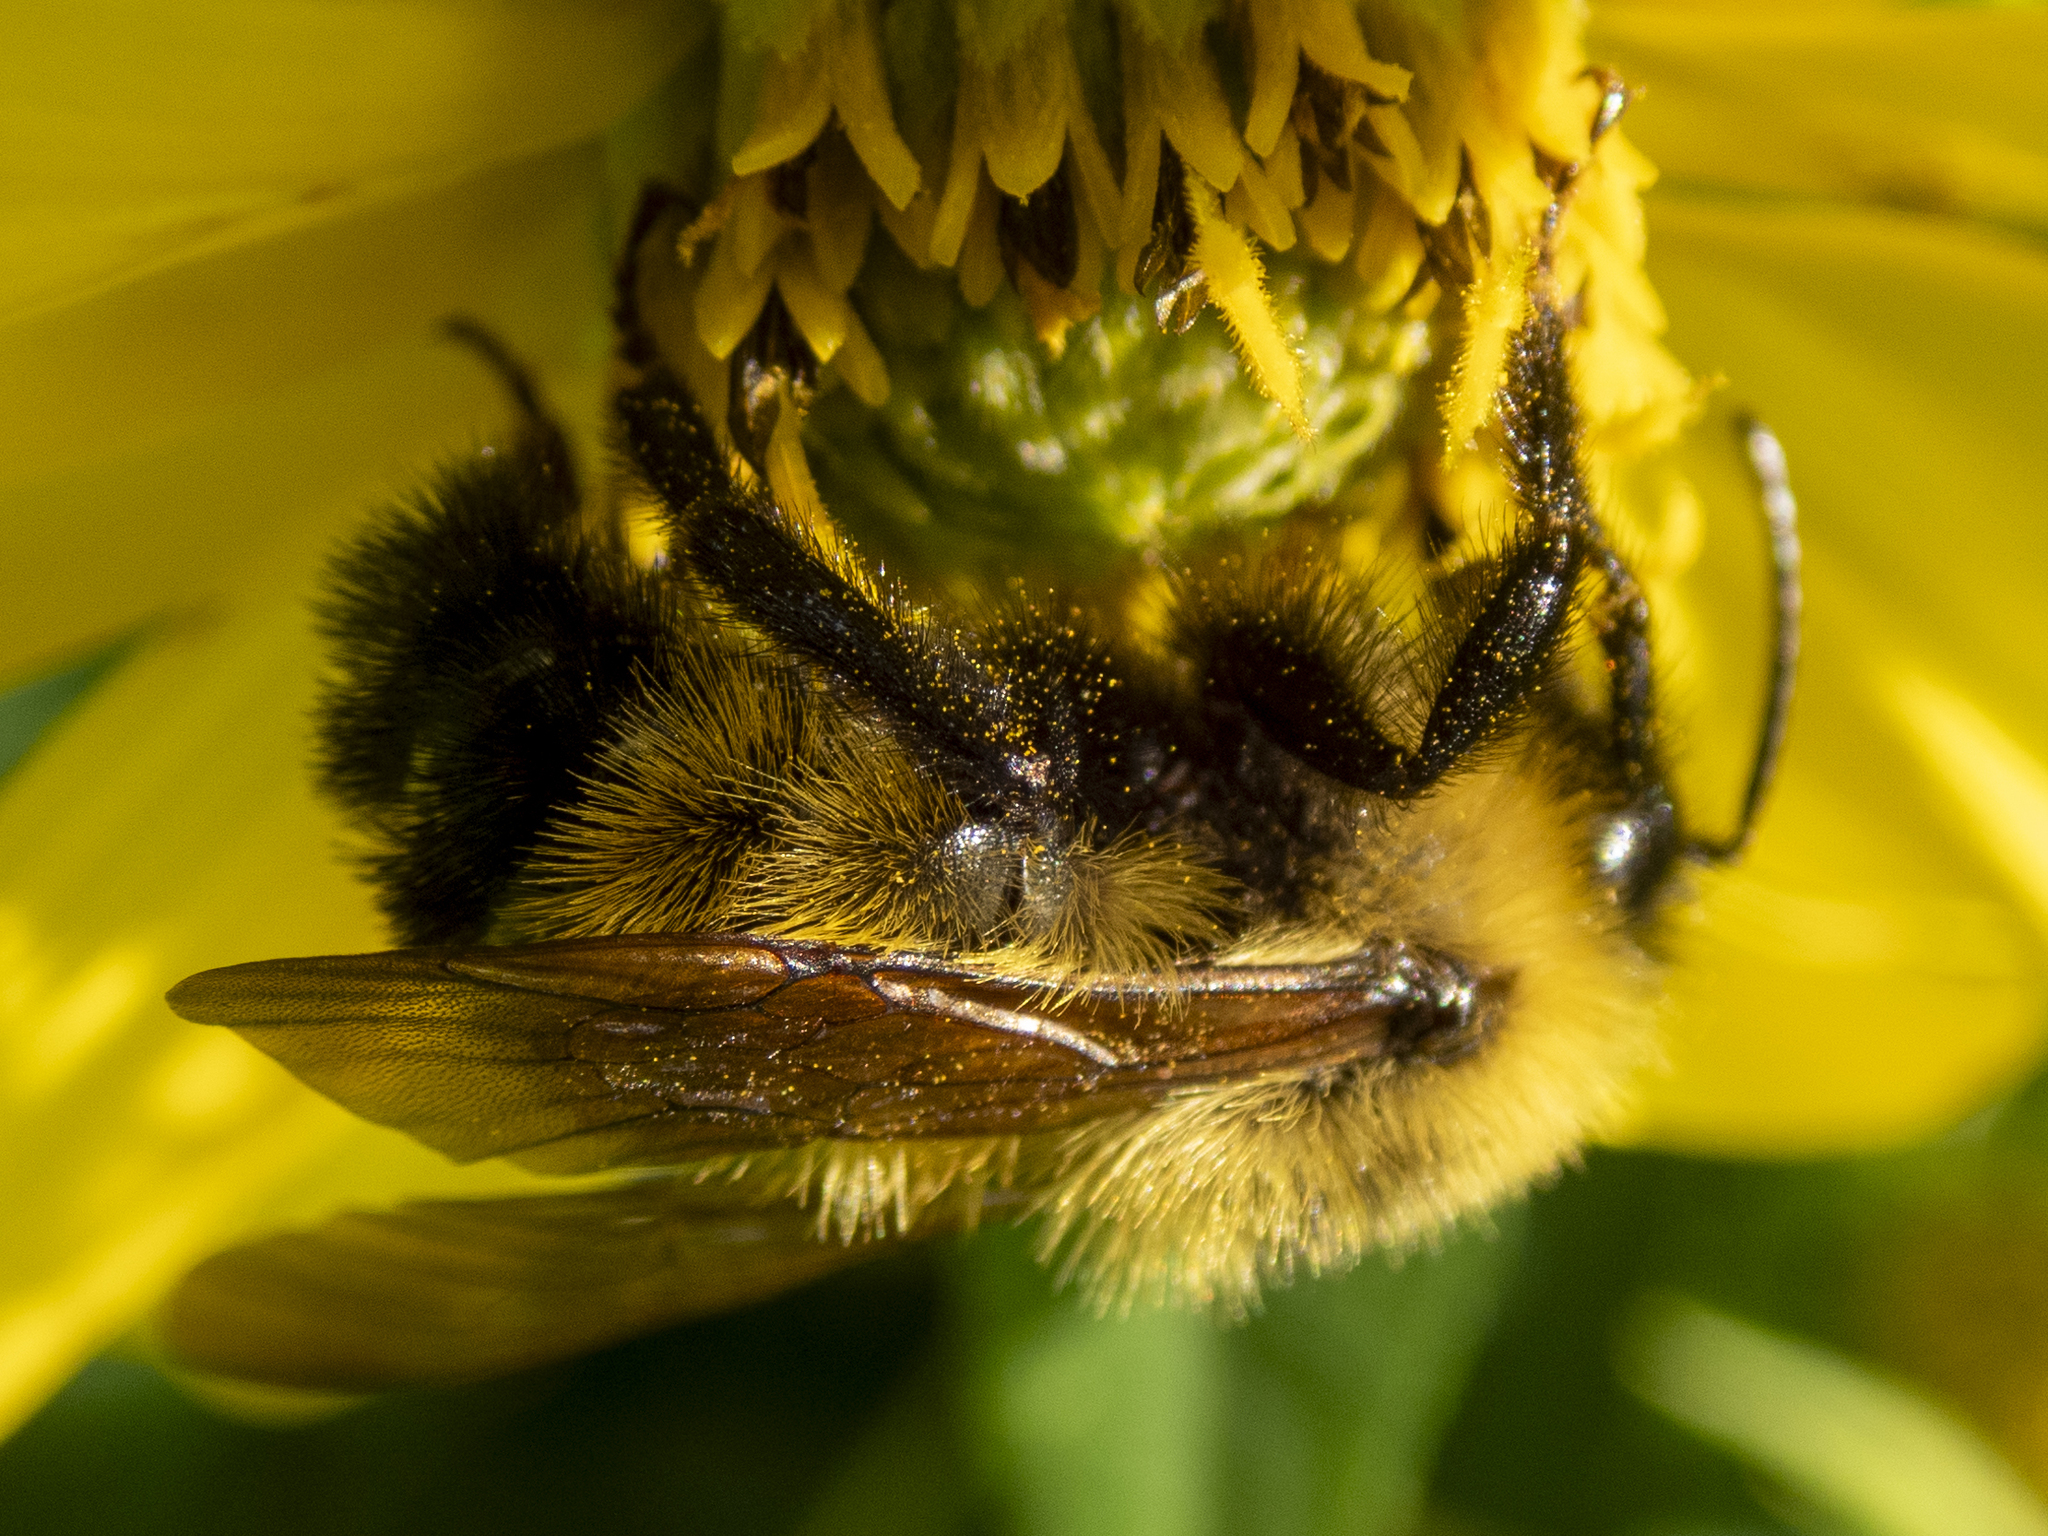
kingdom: Animalia
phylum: Arthropoda
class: Insecta
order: Hymenoptera
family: Apidae
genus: Bombus
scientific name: Bombus citrinus
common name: Lemon cuckoo bumble bee
